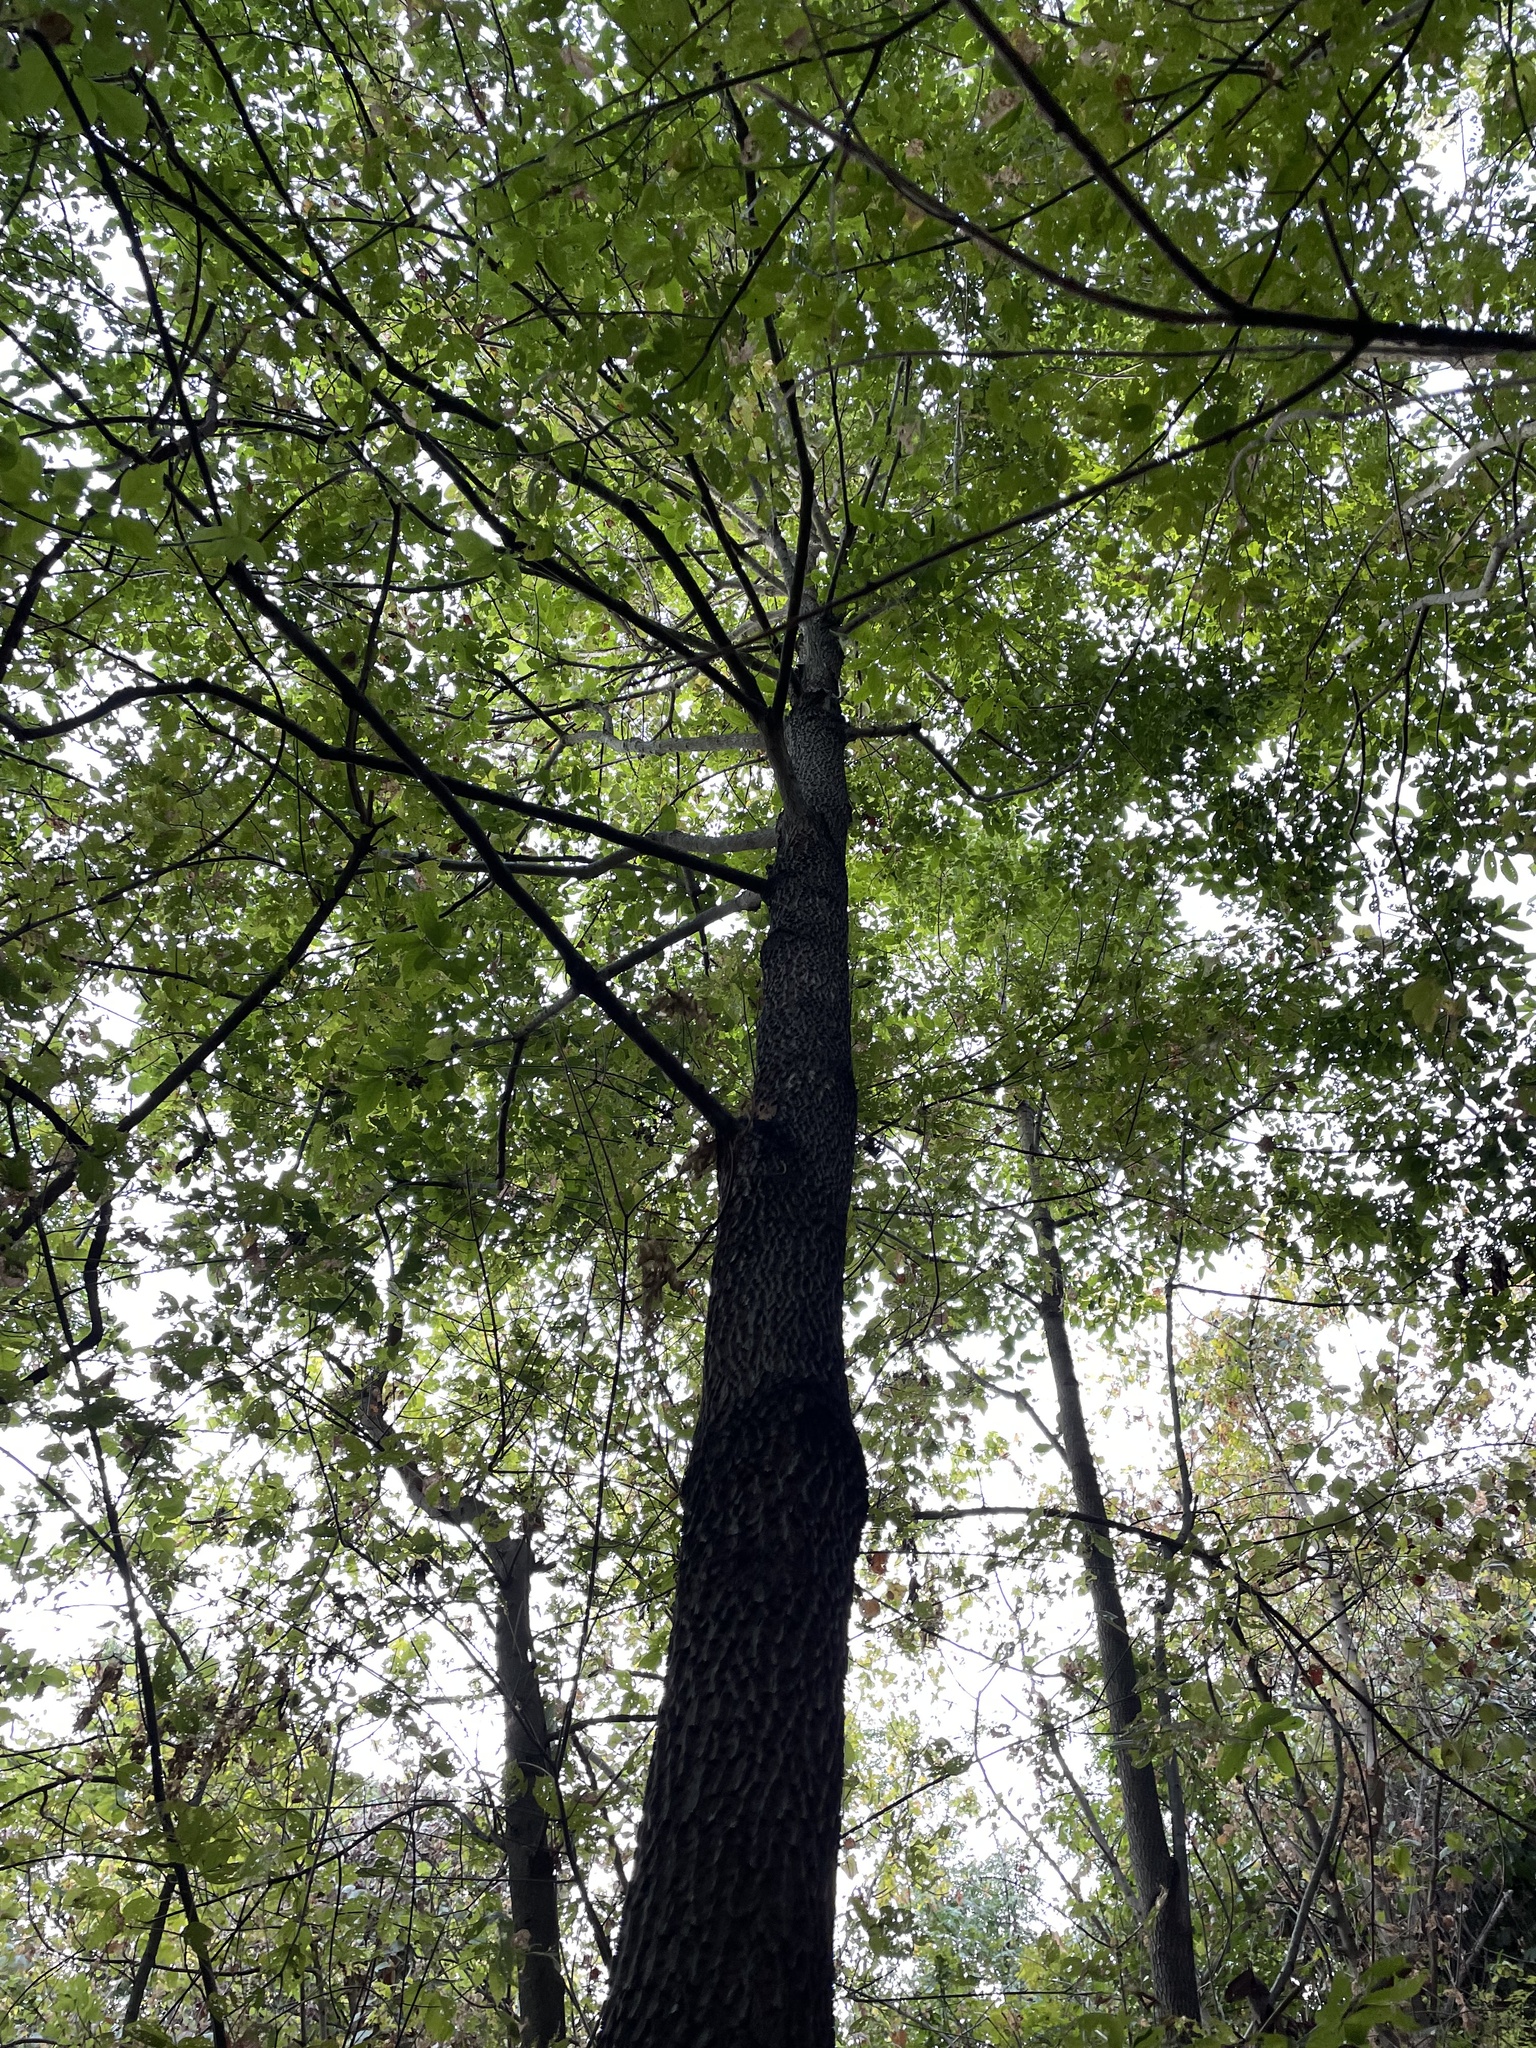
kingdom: Plantae
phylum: Tracheophyta
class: Magnoliopsida
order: Ericales
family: Ebenaceae
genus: Diospyros
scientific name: Diospyros virginiana
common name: Persimmon
